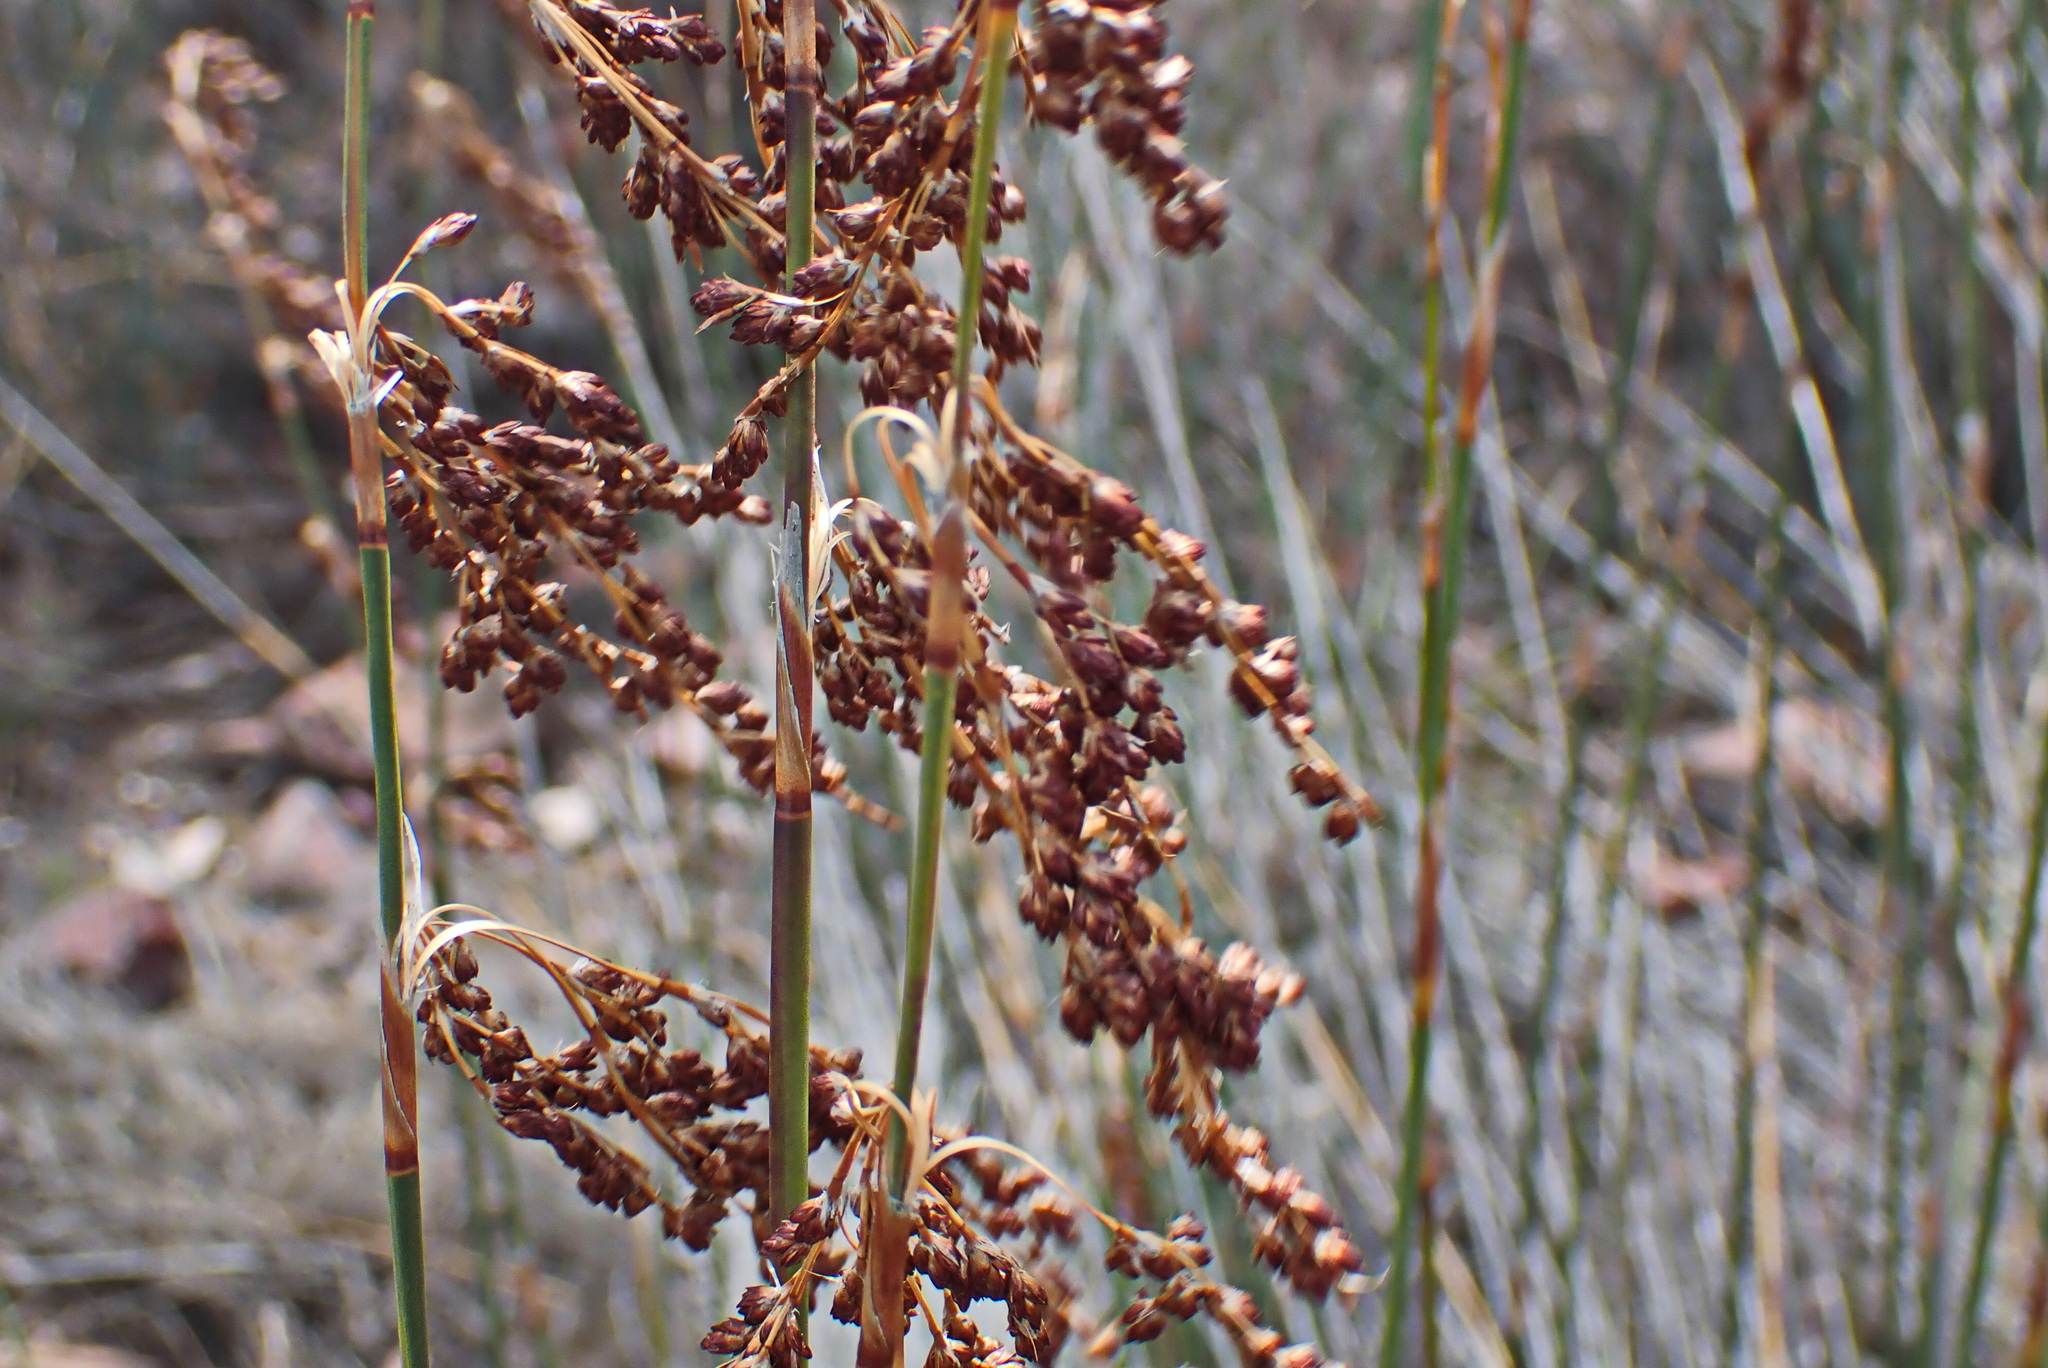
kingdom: Plantae
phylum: Tracheophyta
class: Liliopsida
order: Poales
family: Restionaceae
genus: Rhodocoma
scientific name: Rhodocoma arida
